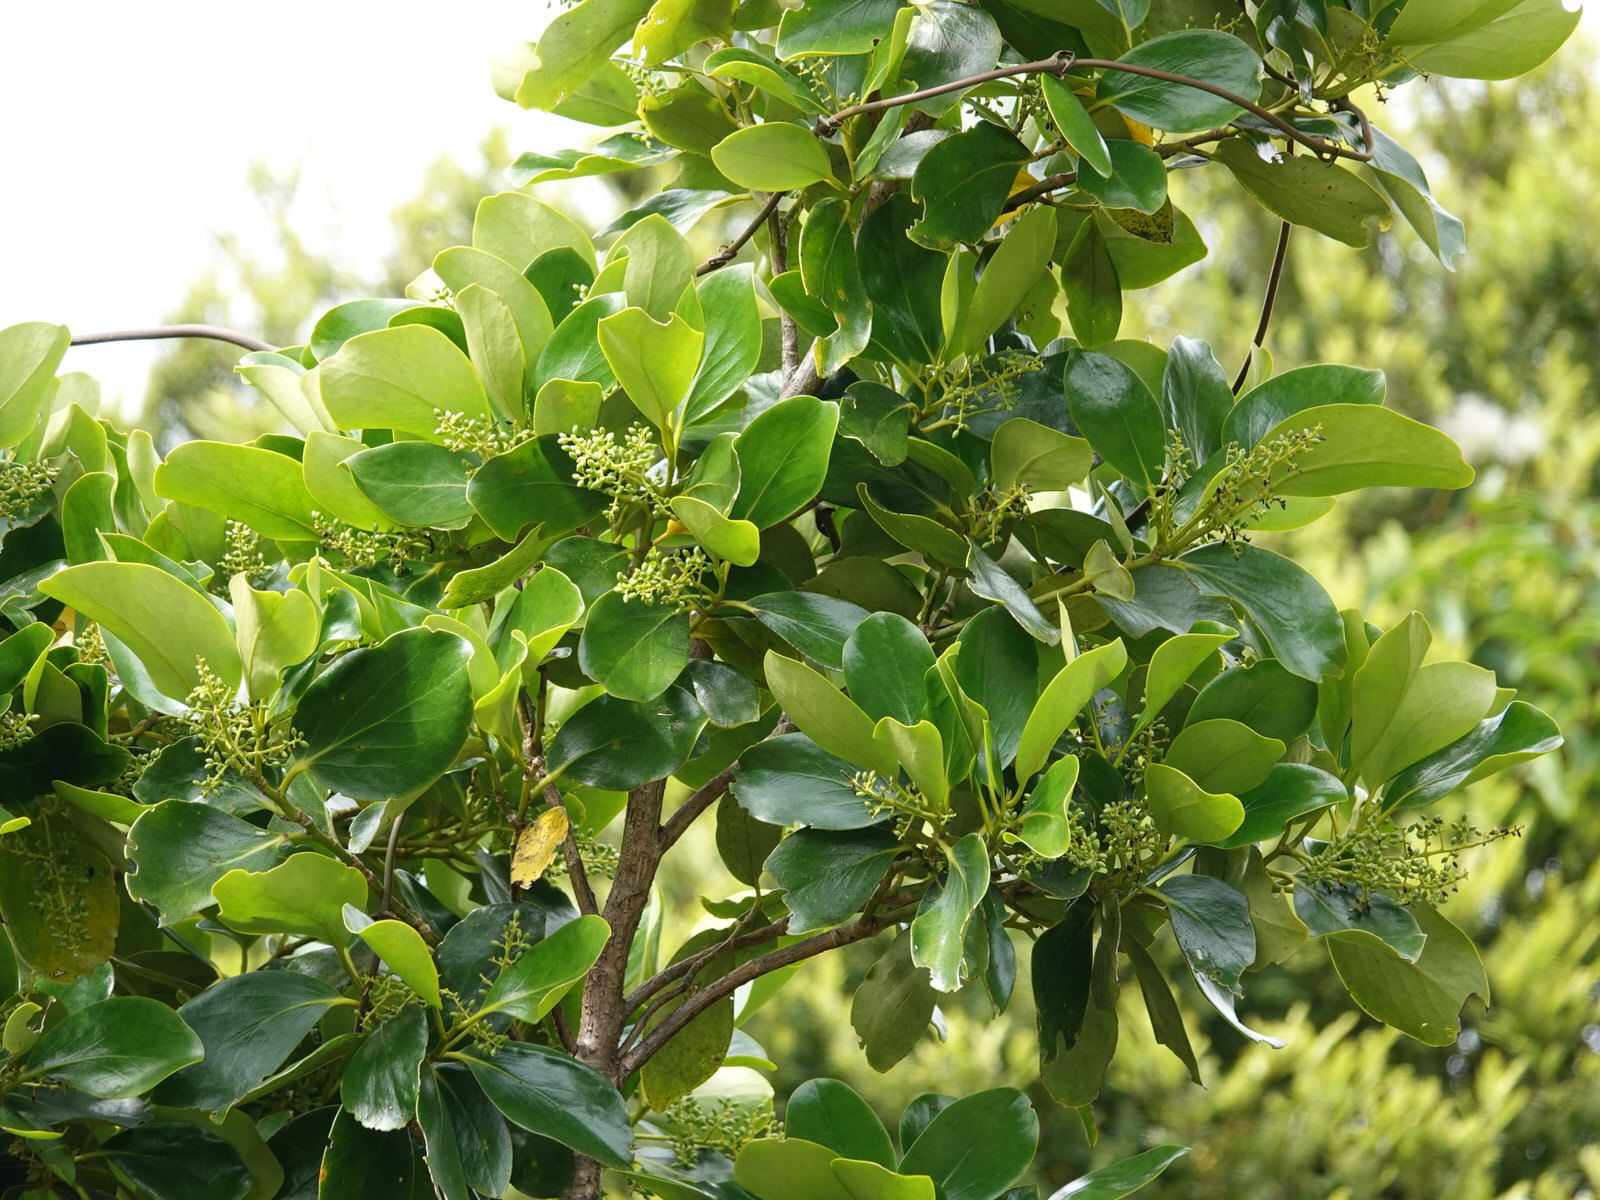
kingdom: Plantae
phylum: Tracheophyta
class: Magnoliopsida
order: Apiales
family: Griseliniaceae
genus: Griselinia
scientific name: Griselinia lucida
